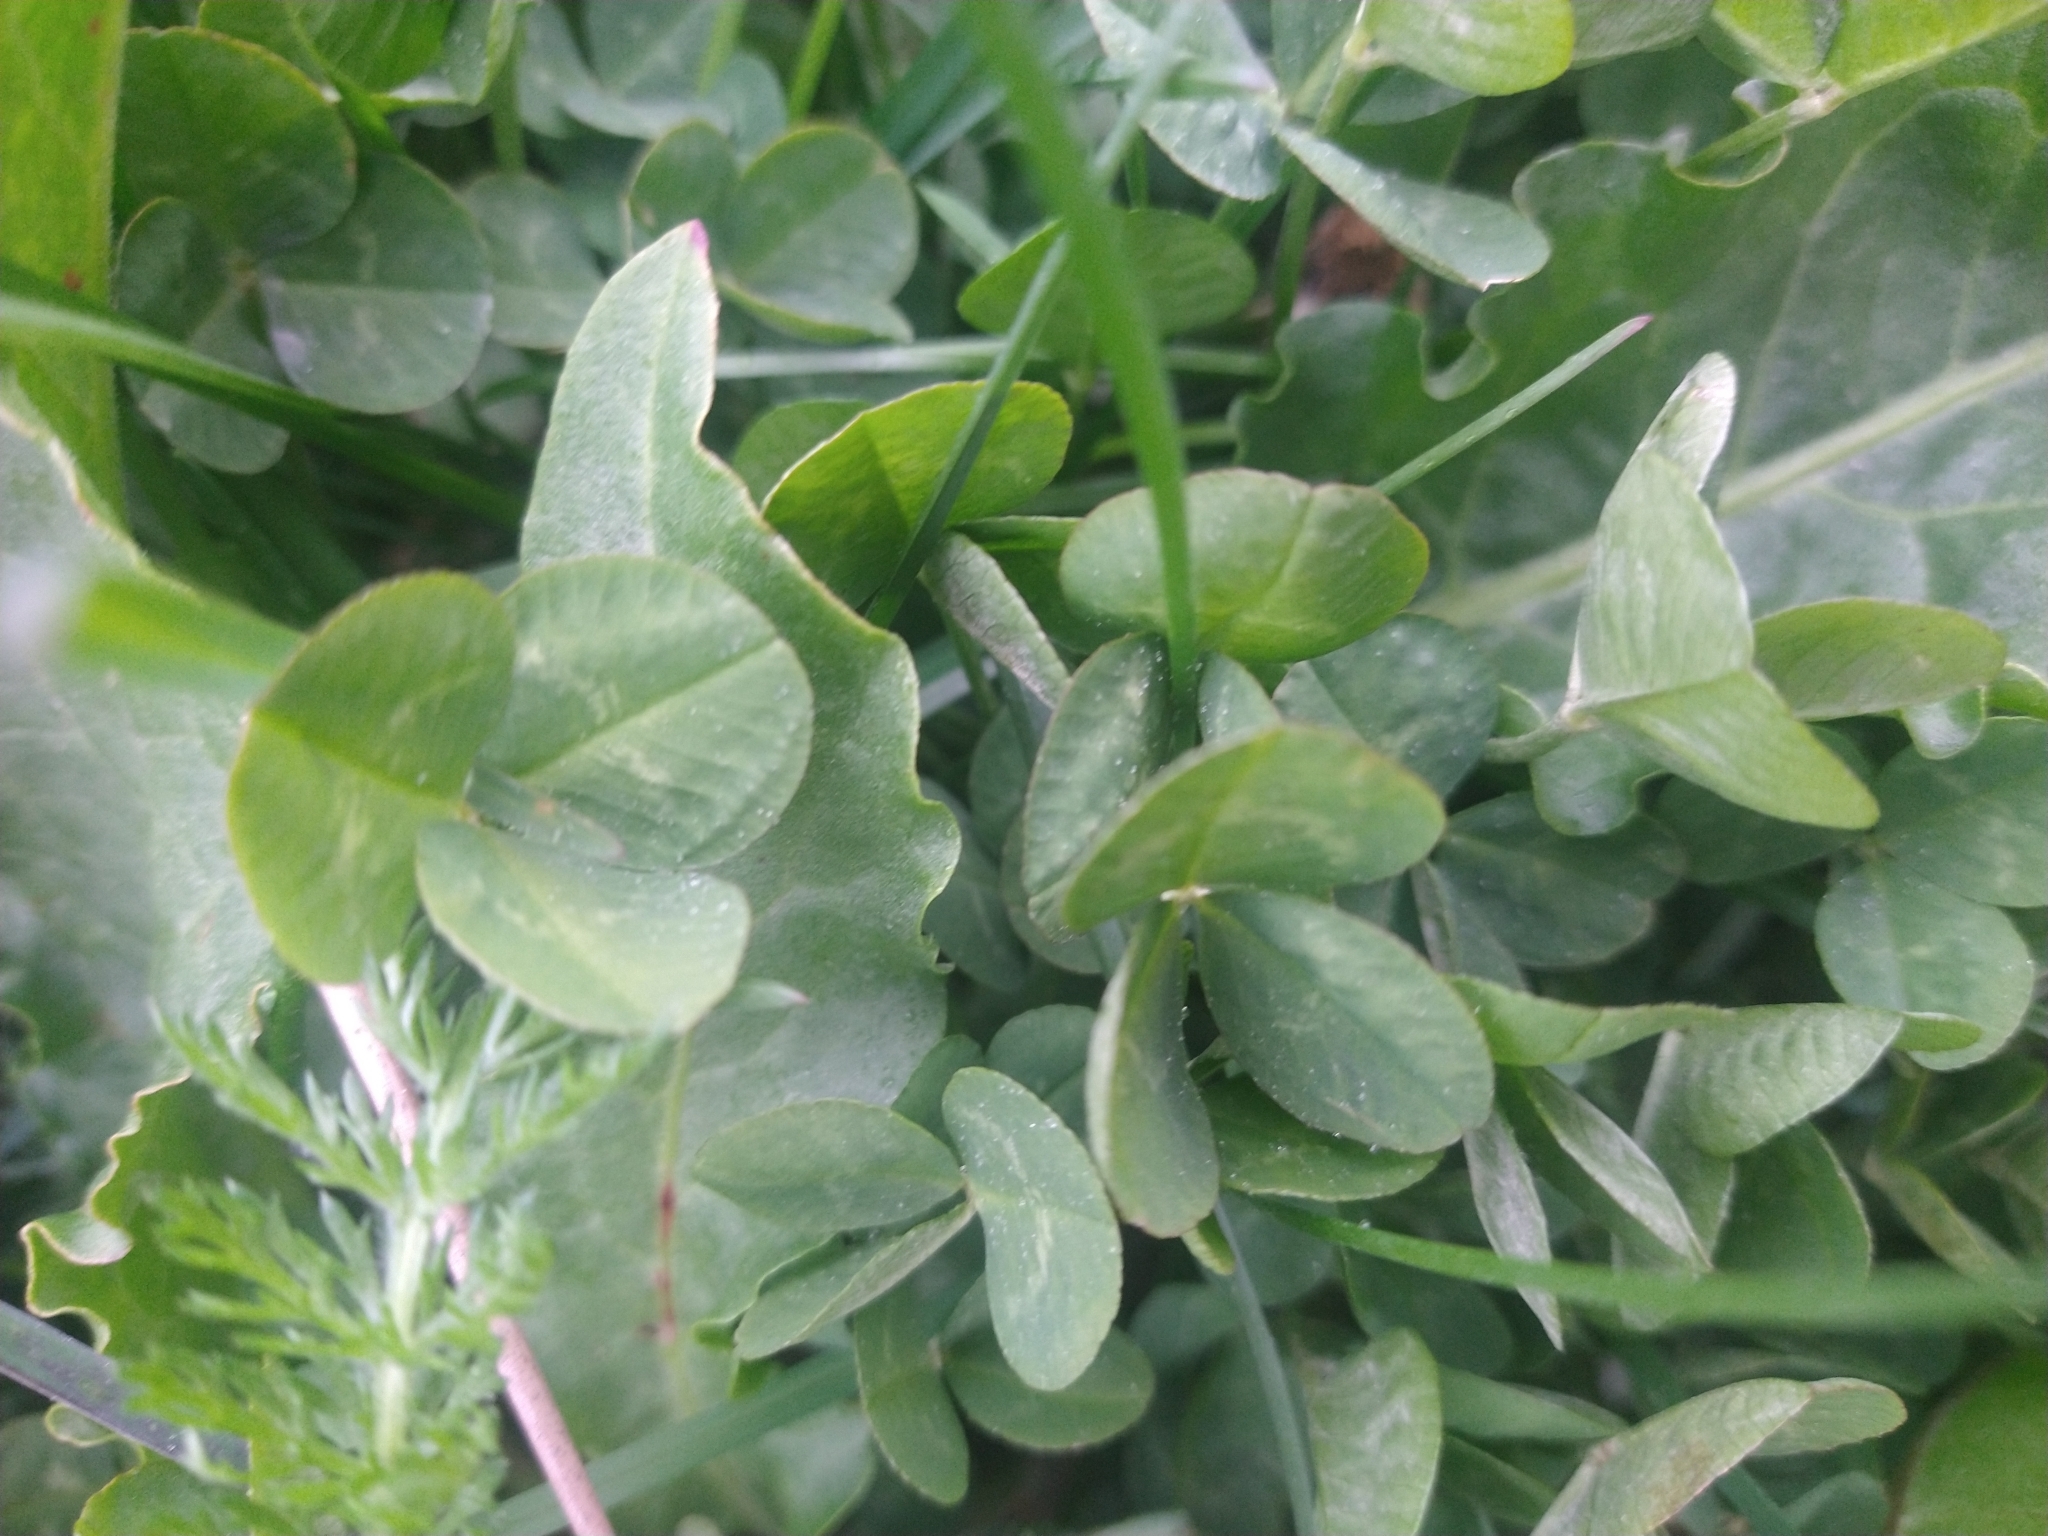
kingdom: Plantae
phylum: Tracheophyta
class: Magnoliopsida
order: Fabales
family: Fabaceae
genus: Trifolium
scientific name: Trifolium repens
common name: White clover
